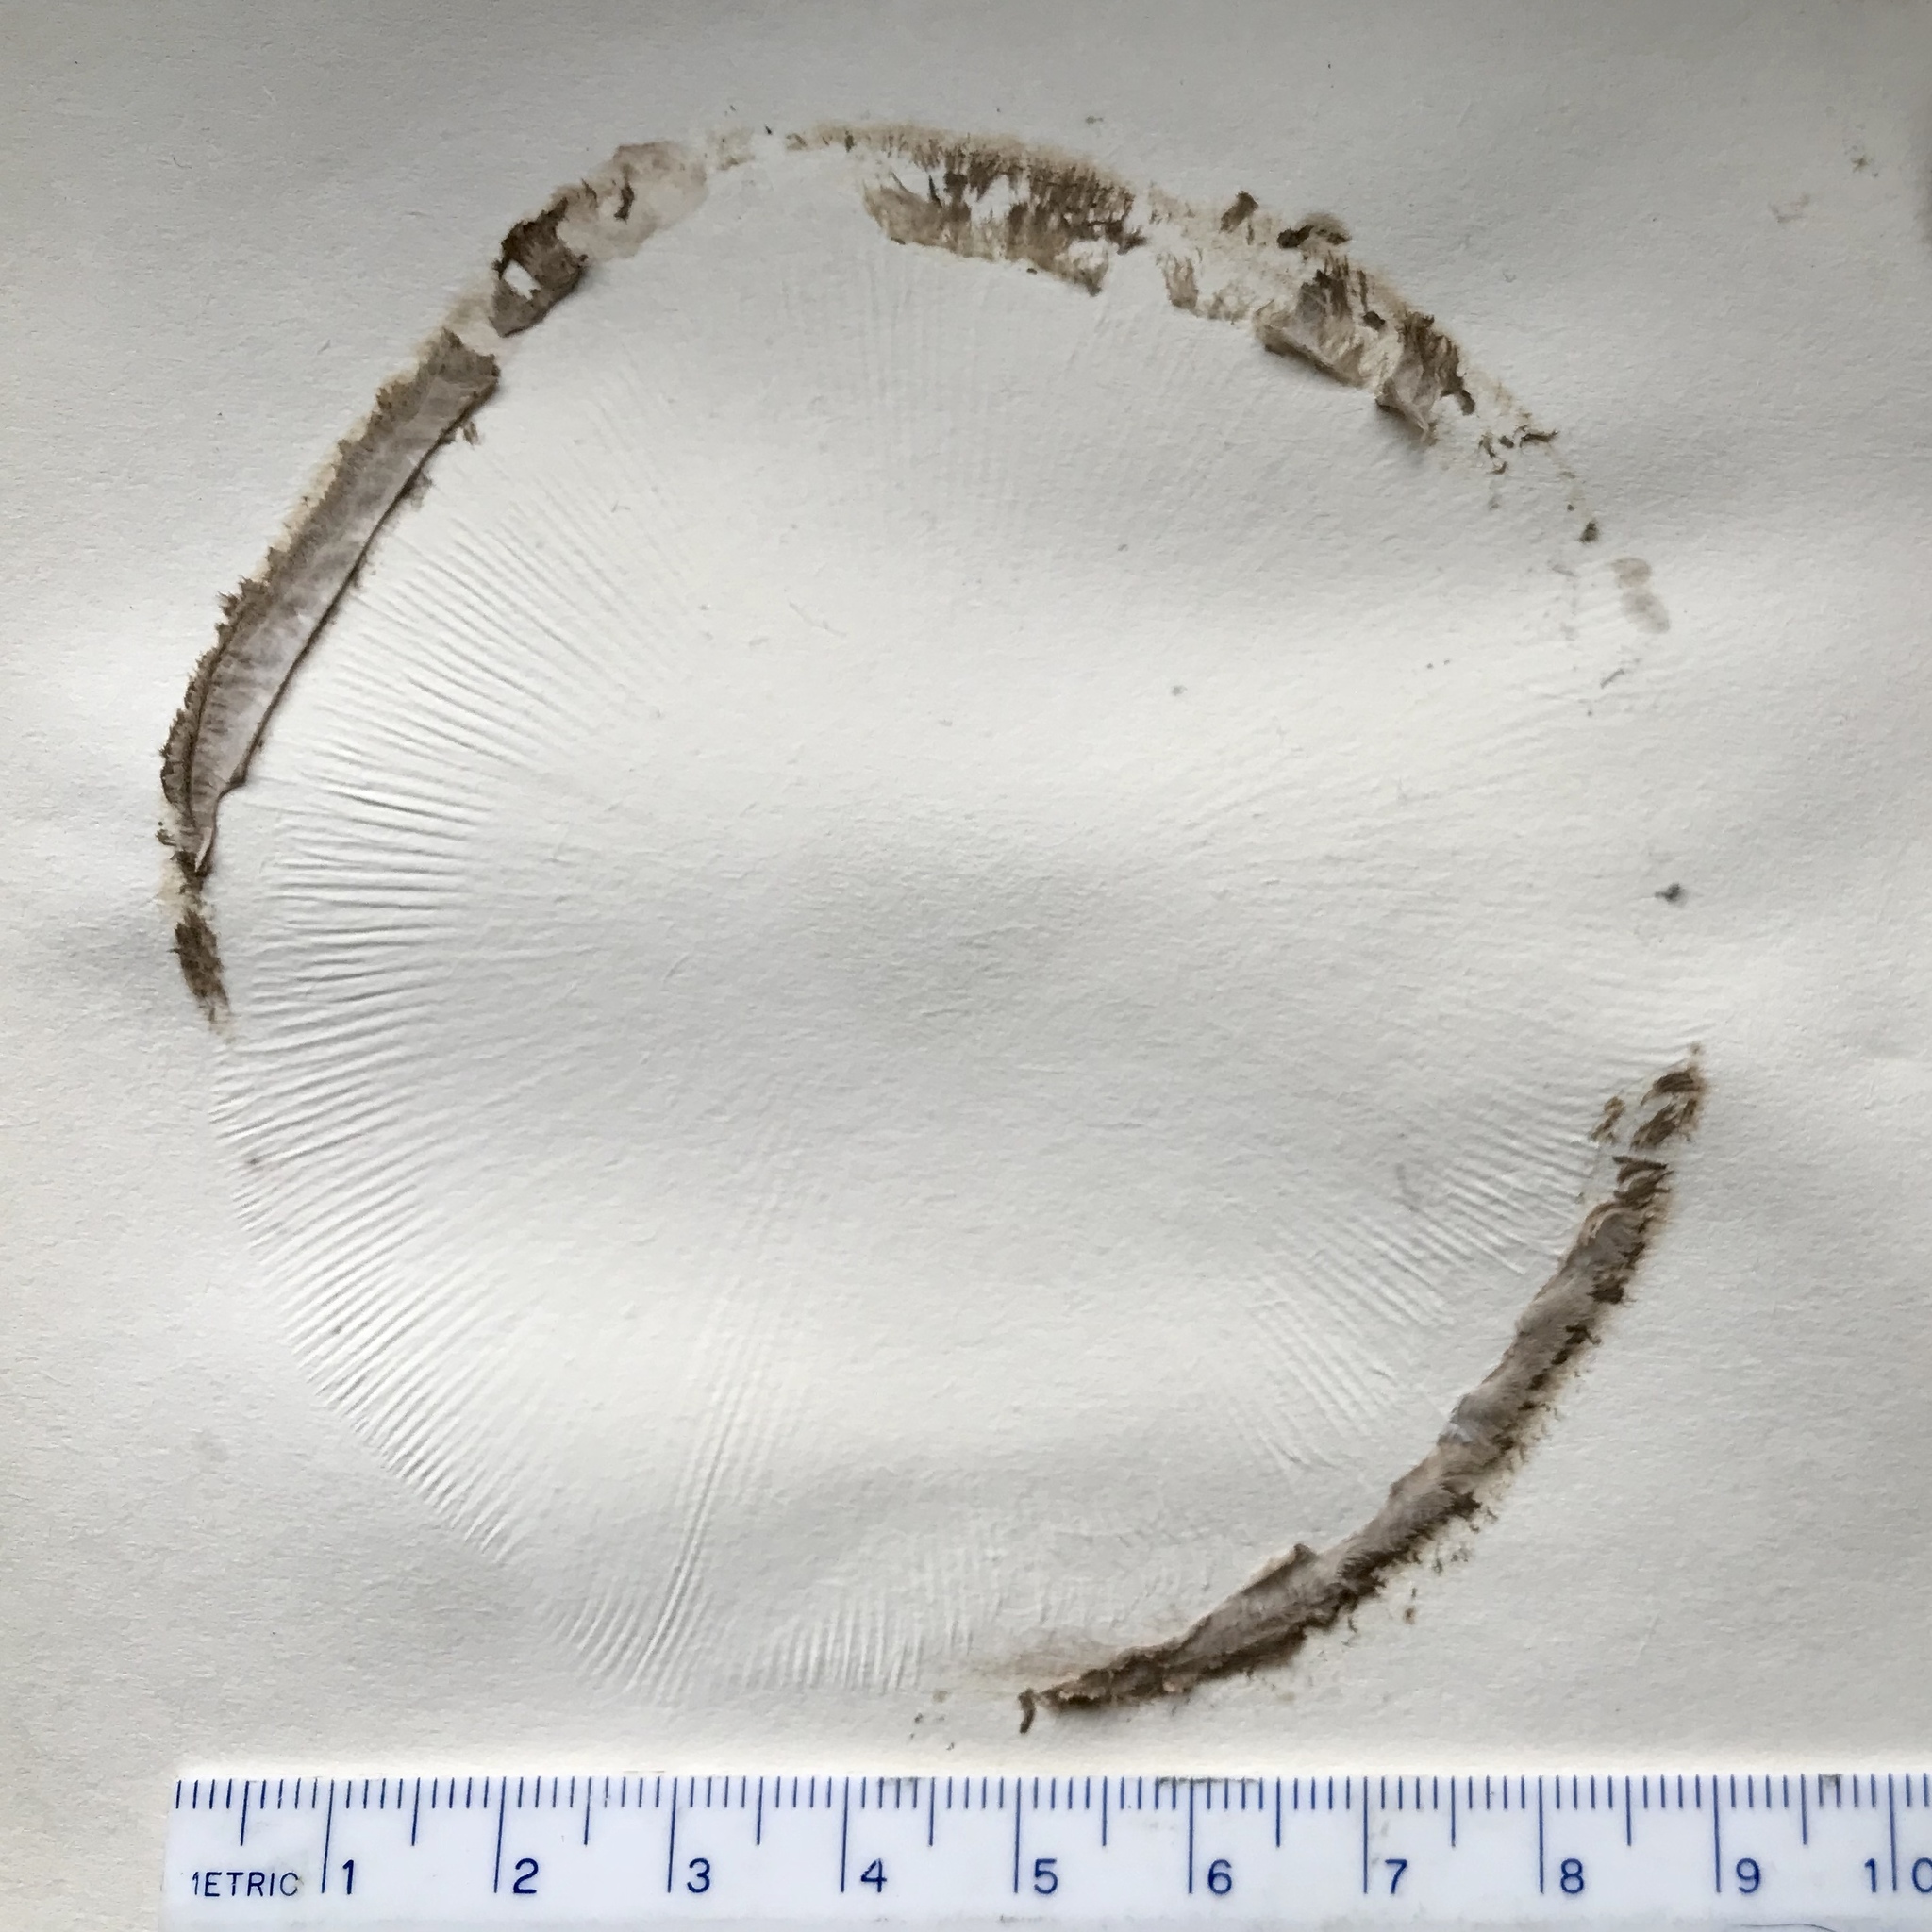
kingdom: Fungi
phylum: Basidiomycota
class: Agaricomycetes
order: Agaricales
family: Agaricaceae
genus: Chlorophyllum
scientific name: Chlorophyllum olivieri
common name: Conifer parasol
